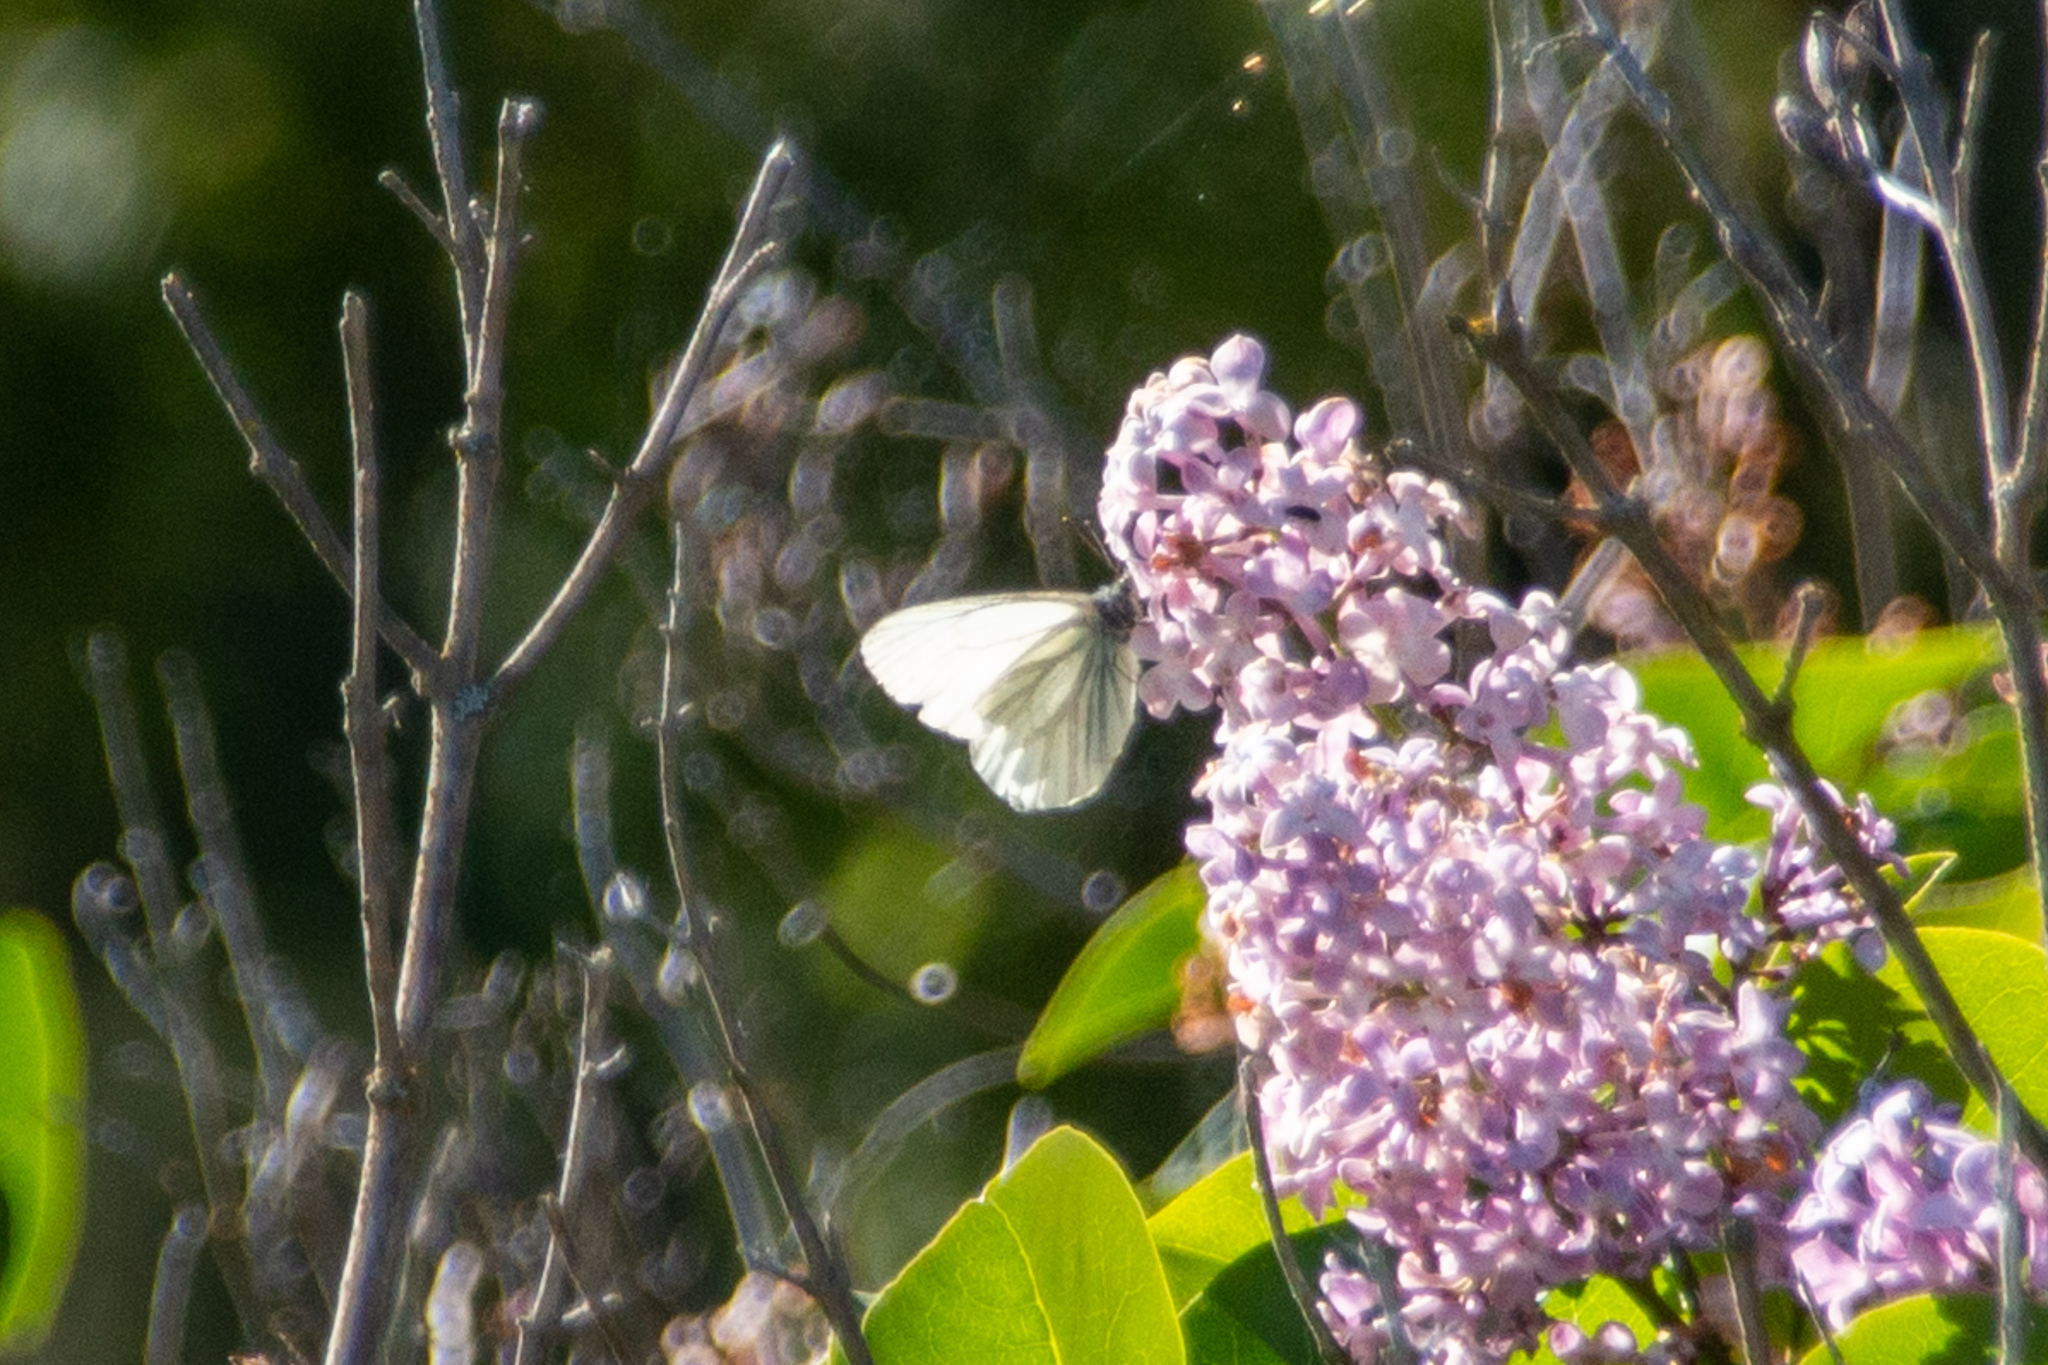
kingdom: Animalia
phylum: Arthropoda
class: Insecta
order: Lepidoptera
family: Pieridae
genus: Pieris
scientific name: Pieris marginalis
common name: Margined white
